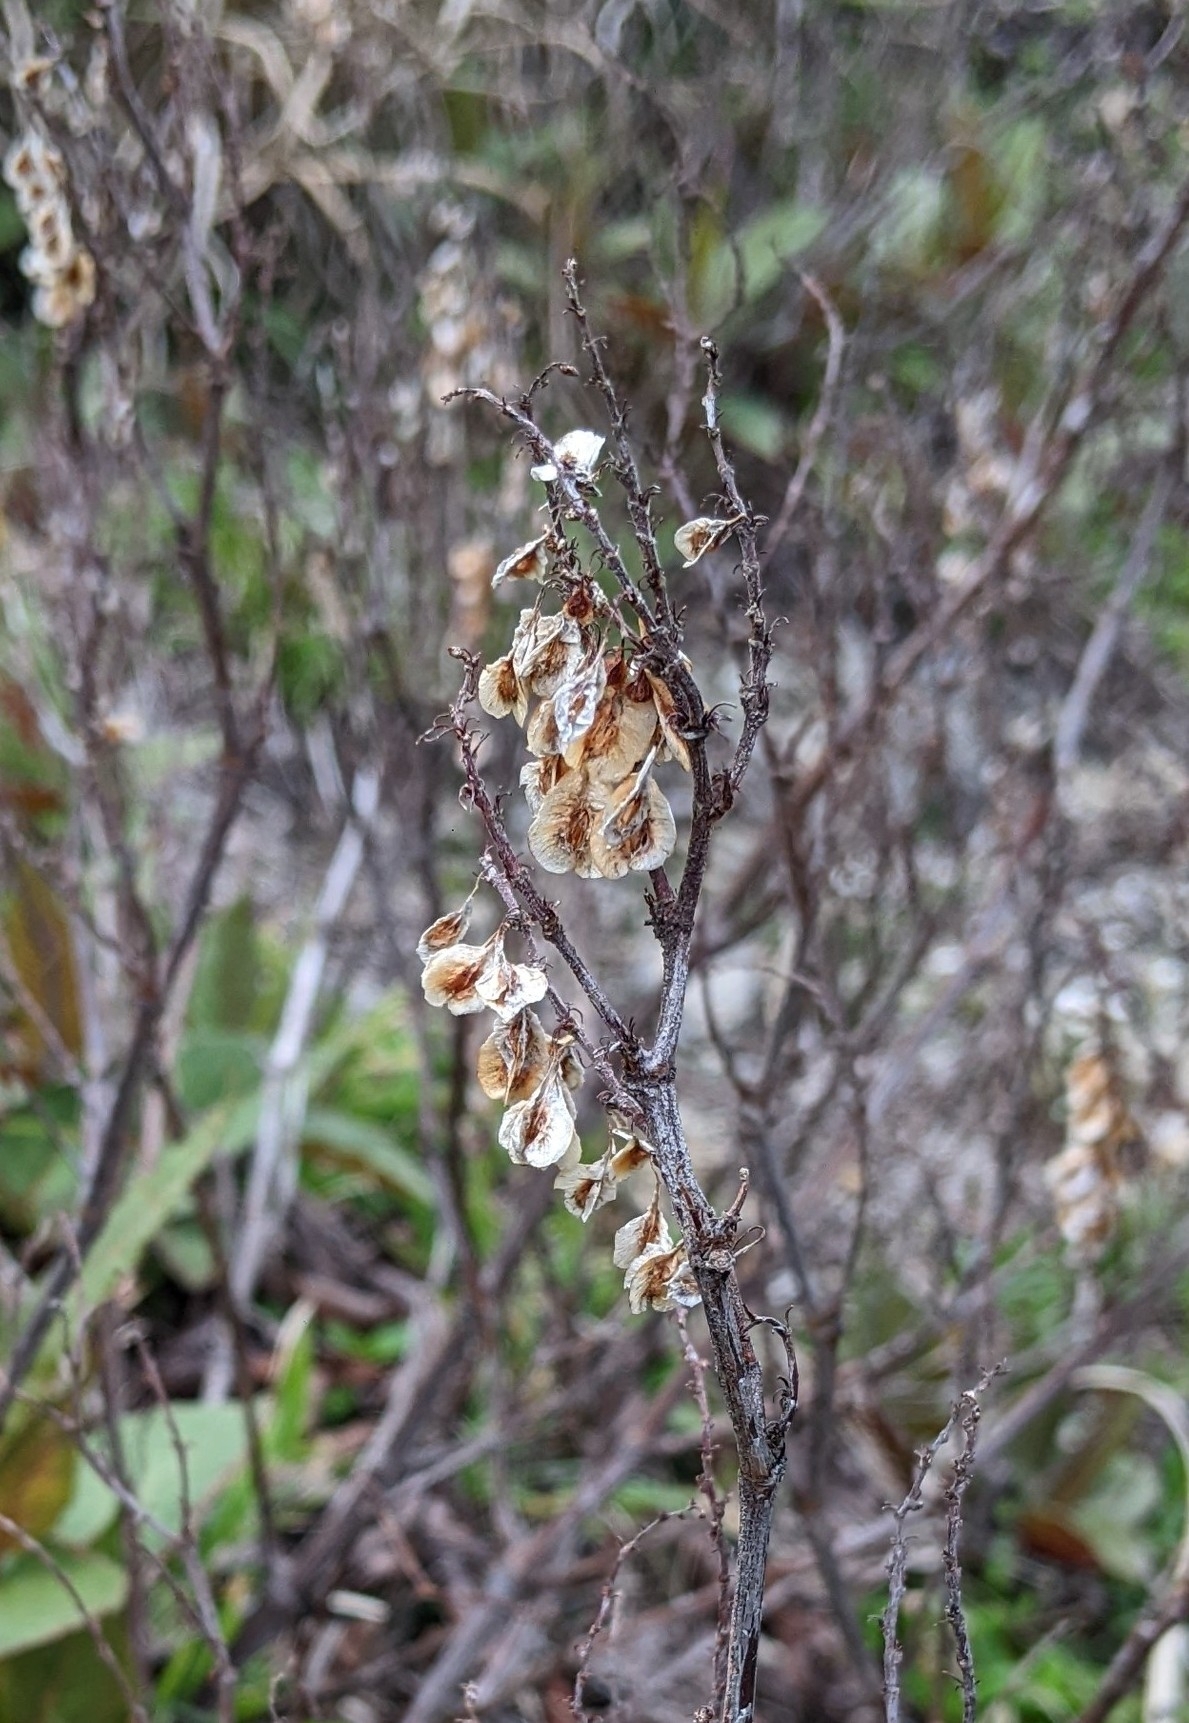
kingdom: Plantae
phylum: Tracheophyta
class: Magnoliopsida
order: Caryophyllales
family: Polygonaceae
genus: Reynoutria
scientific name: Reynoutria japonica
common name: Japanese knotweed
